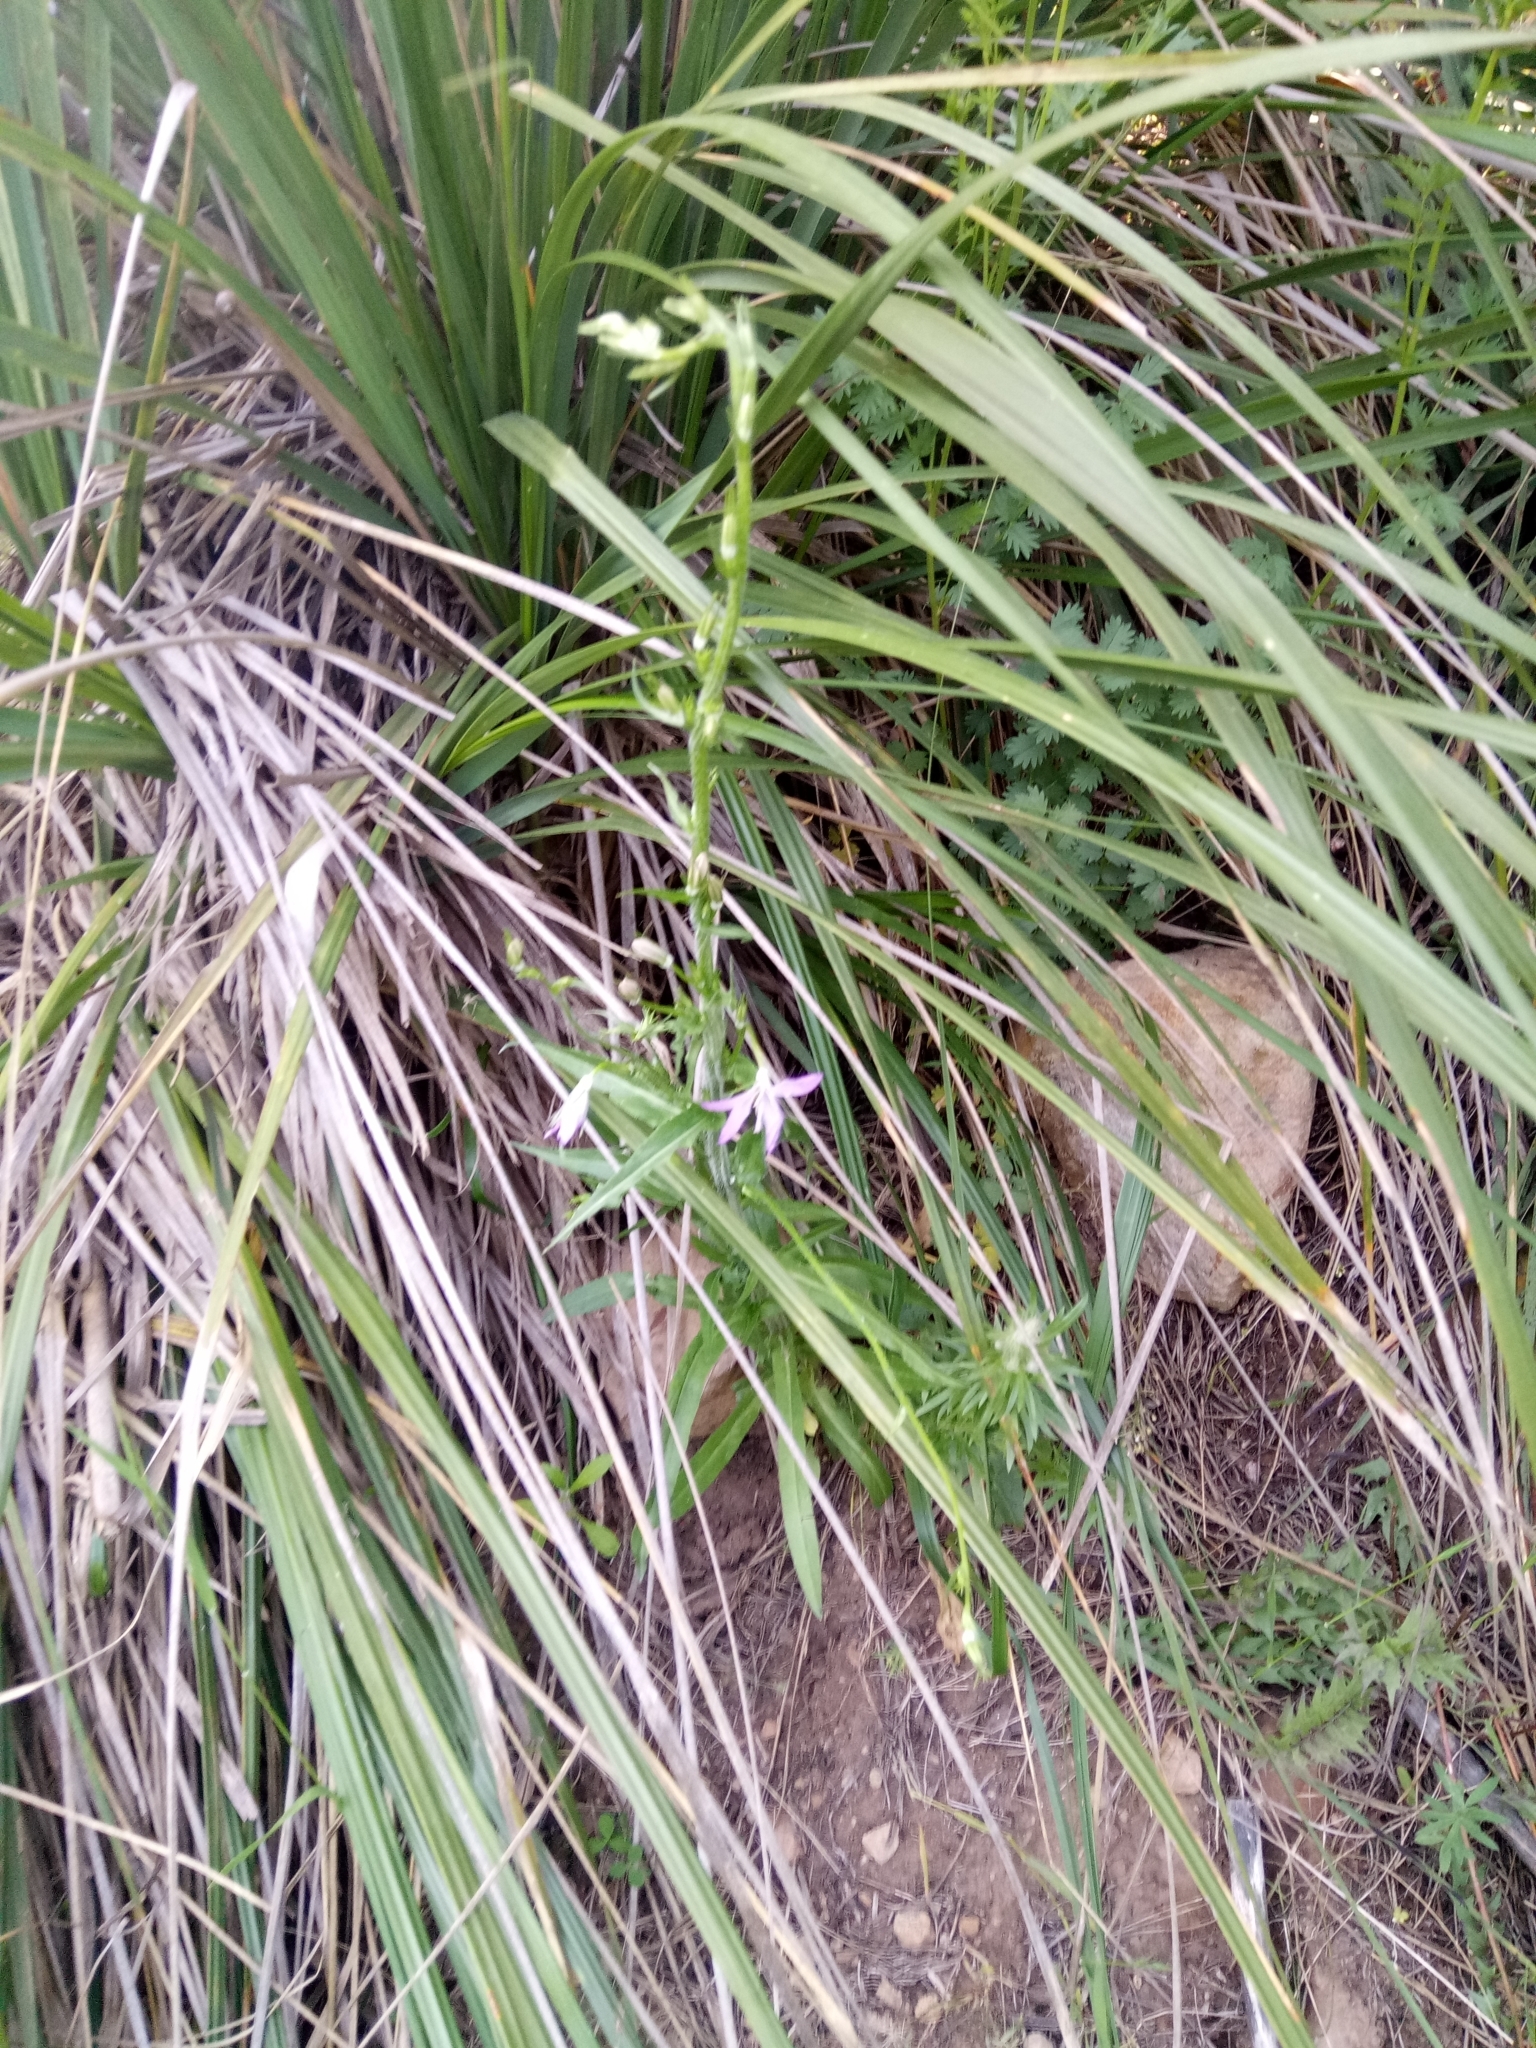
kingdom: Plantae
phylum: Tracheophyta
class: Magnoliopsida
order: Asterales
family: Campanulaceae
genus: Campanula
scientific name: Campanula rapunculus
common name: Rampion bellflower
